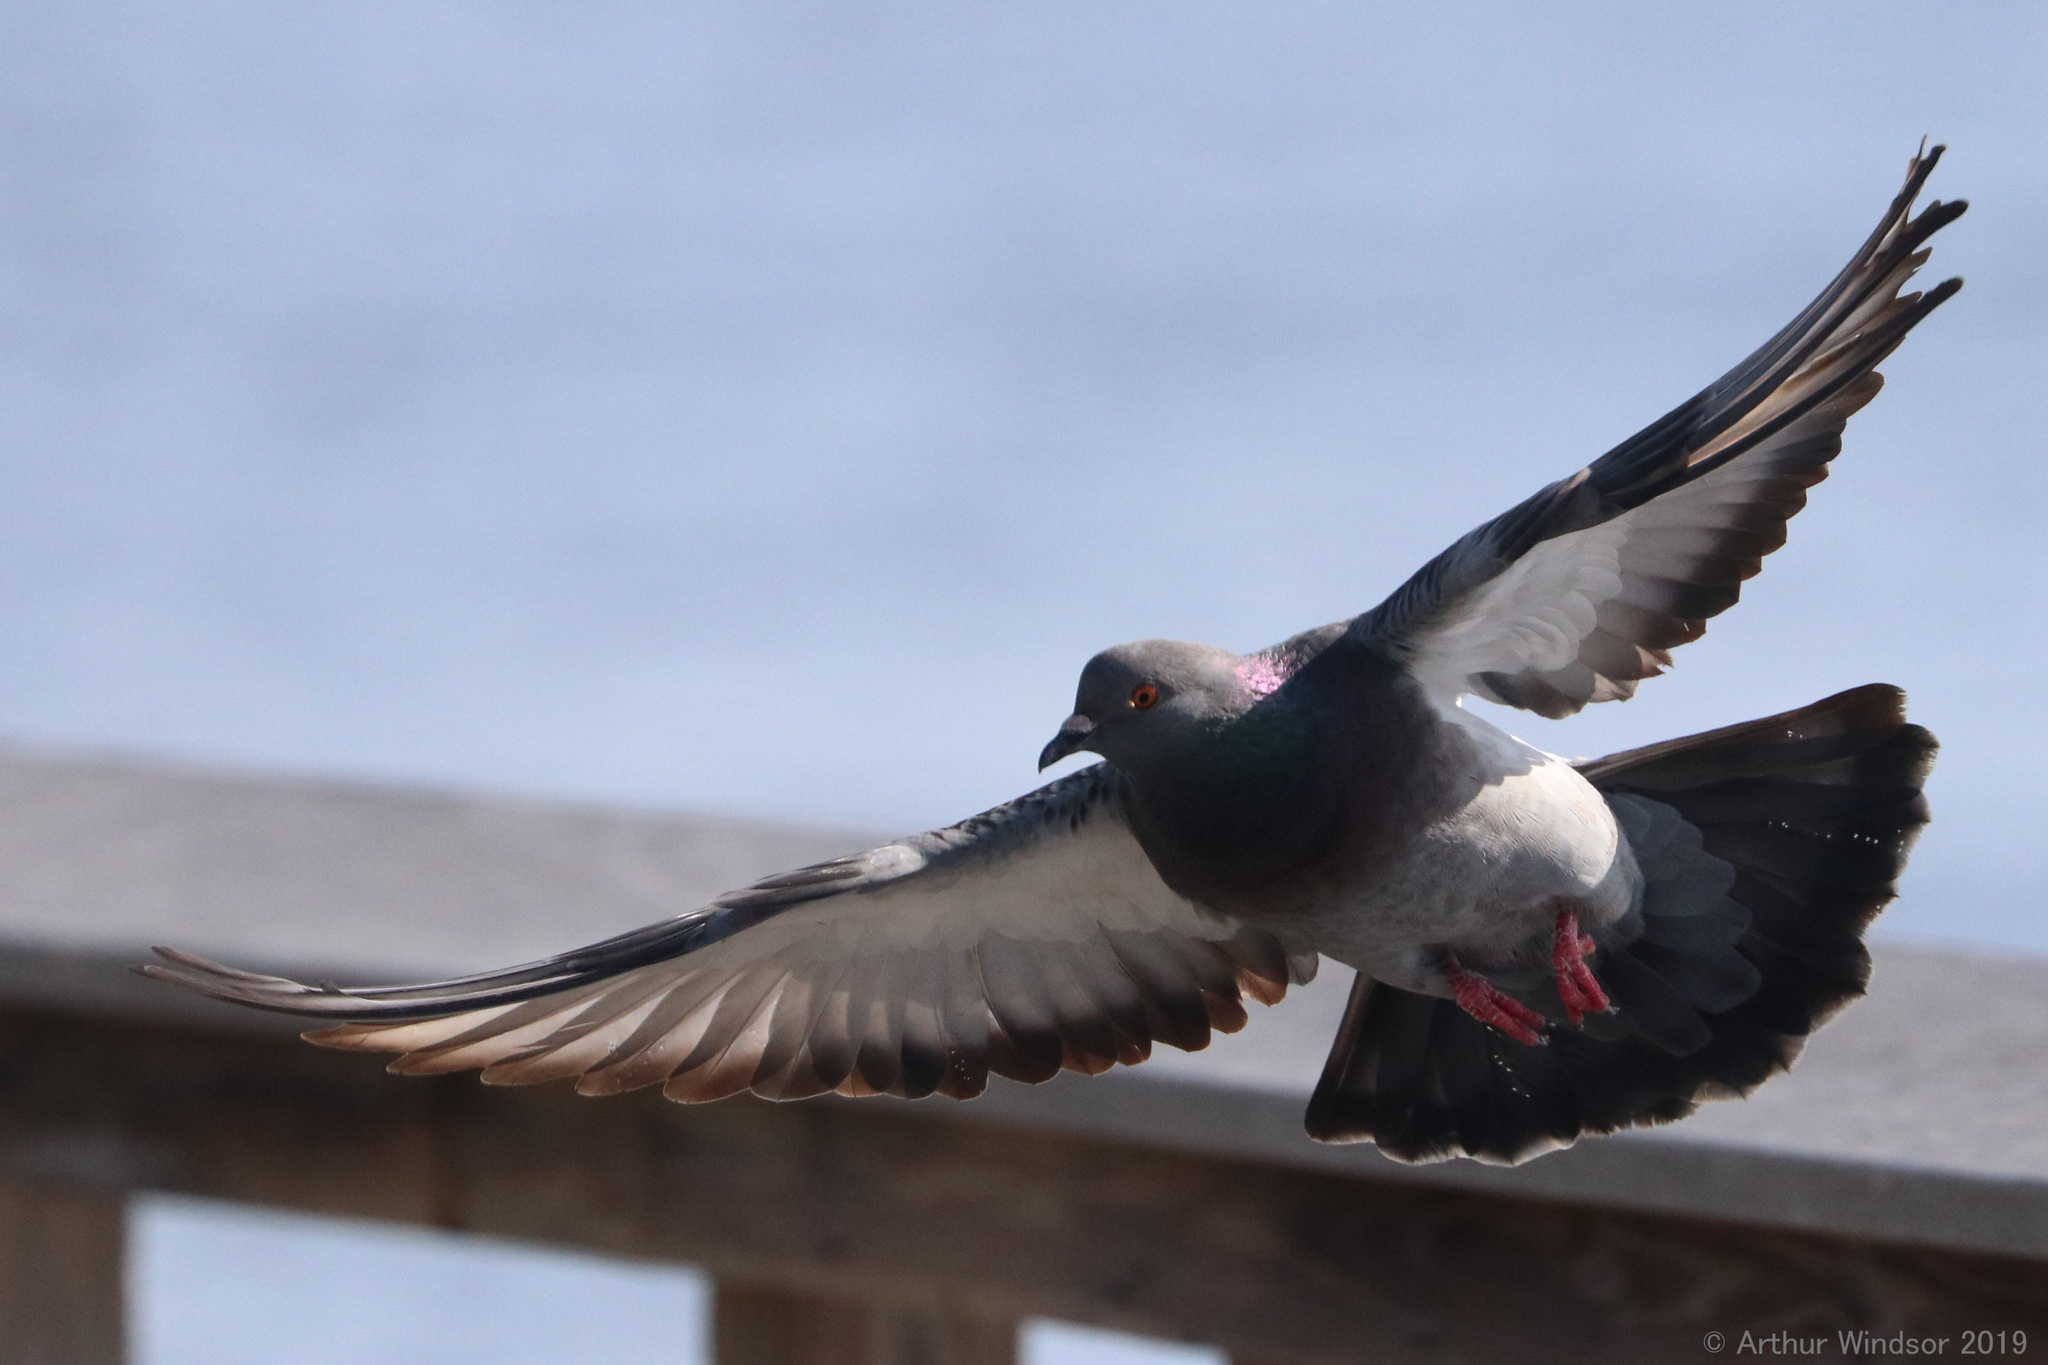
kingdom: Animalia
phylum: Chordata
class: Aves
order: Columbiformes
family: Columbidae
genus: Columba
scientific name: Columba livia
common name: Rock pigeon
